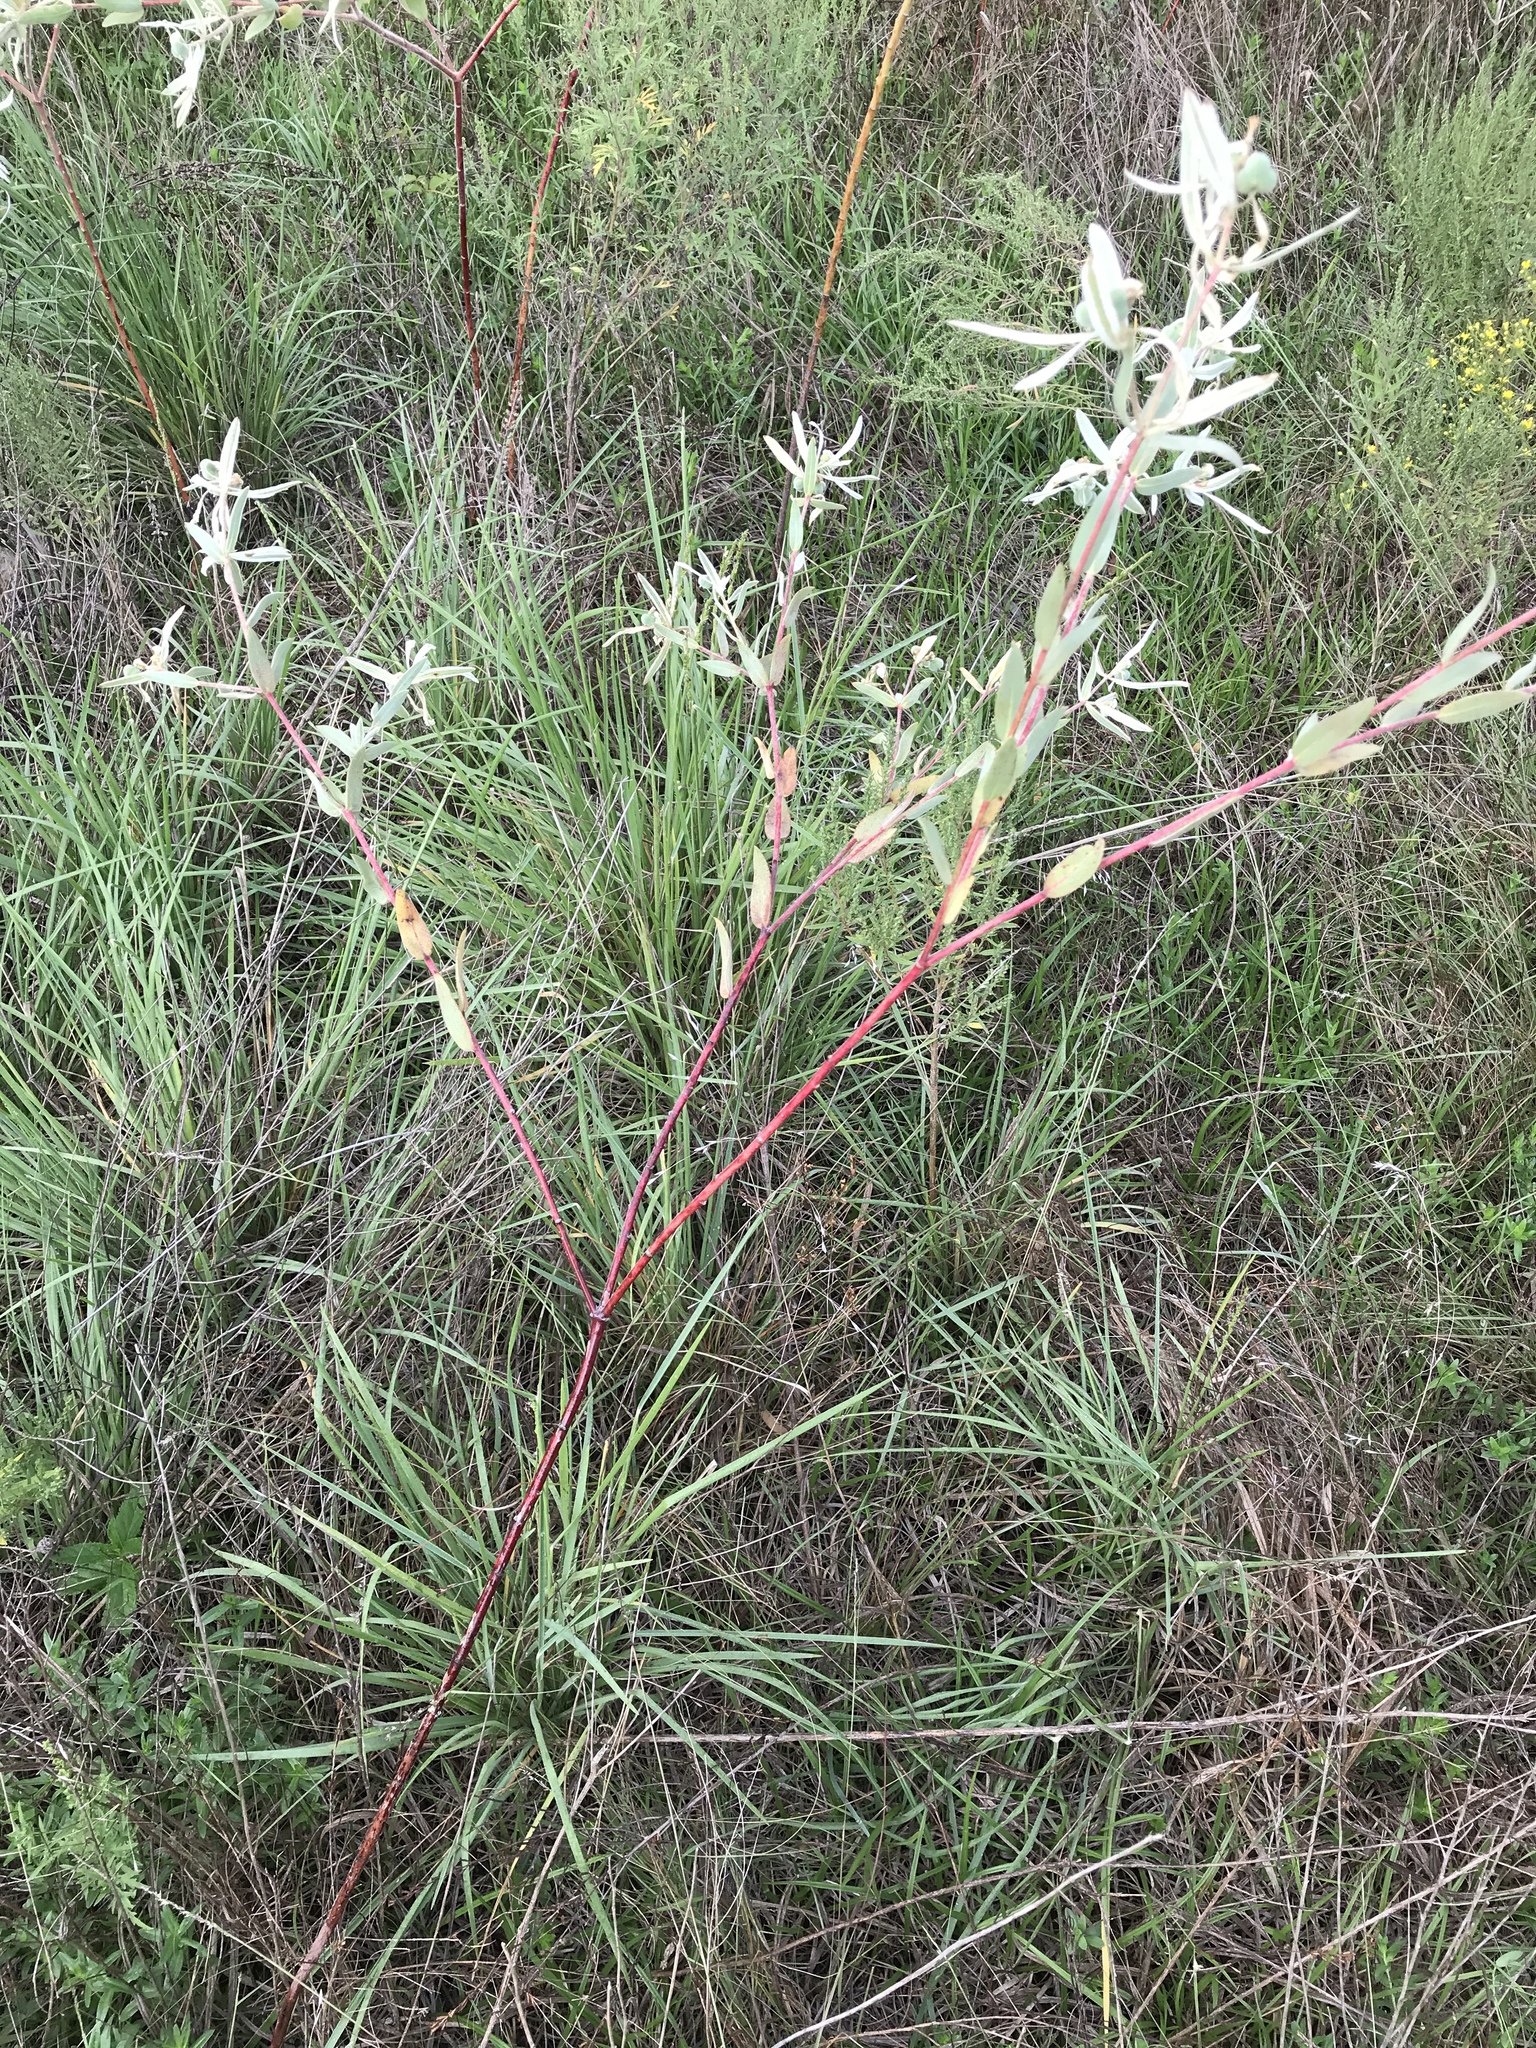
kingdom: Plantae
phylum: Tracheophyta
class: Magnoliopsida
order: Malpighiales
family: Euphorbiaceae
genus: Euphorbia
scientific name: Euphorbia bicolor
